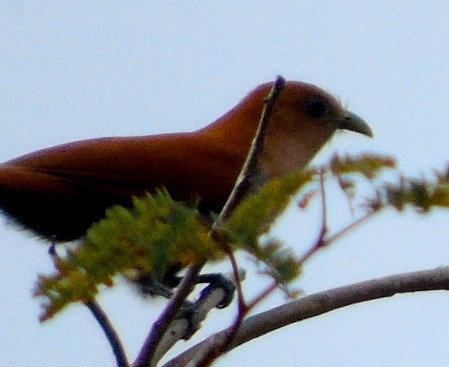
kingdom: Animalia
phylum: Chordata
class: Aves
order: Cuculiformes
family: Cuculidae
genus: Piaya
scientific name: Piaya cayana
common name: Squirrel cuckoo
